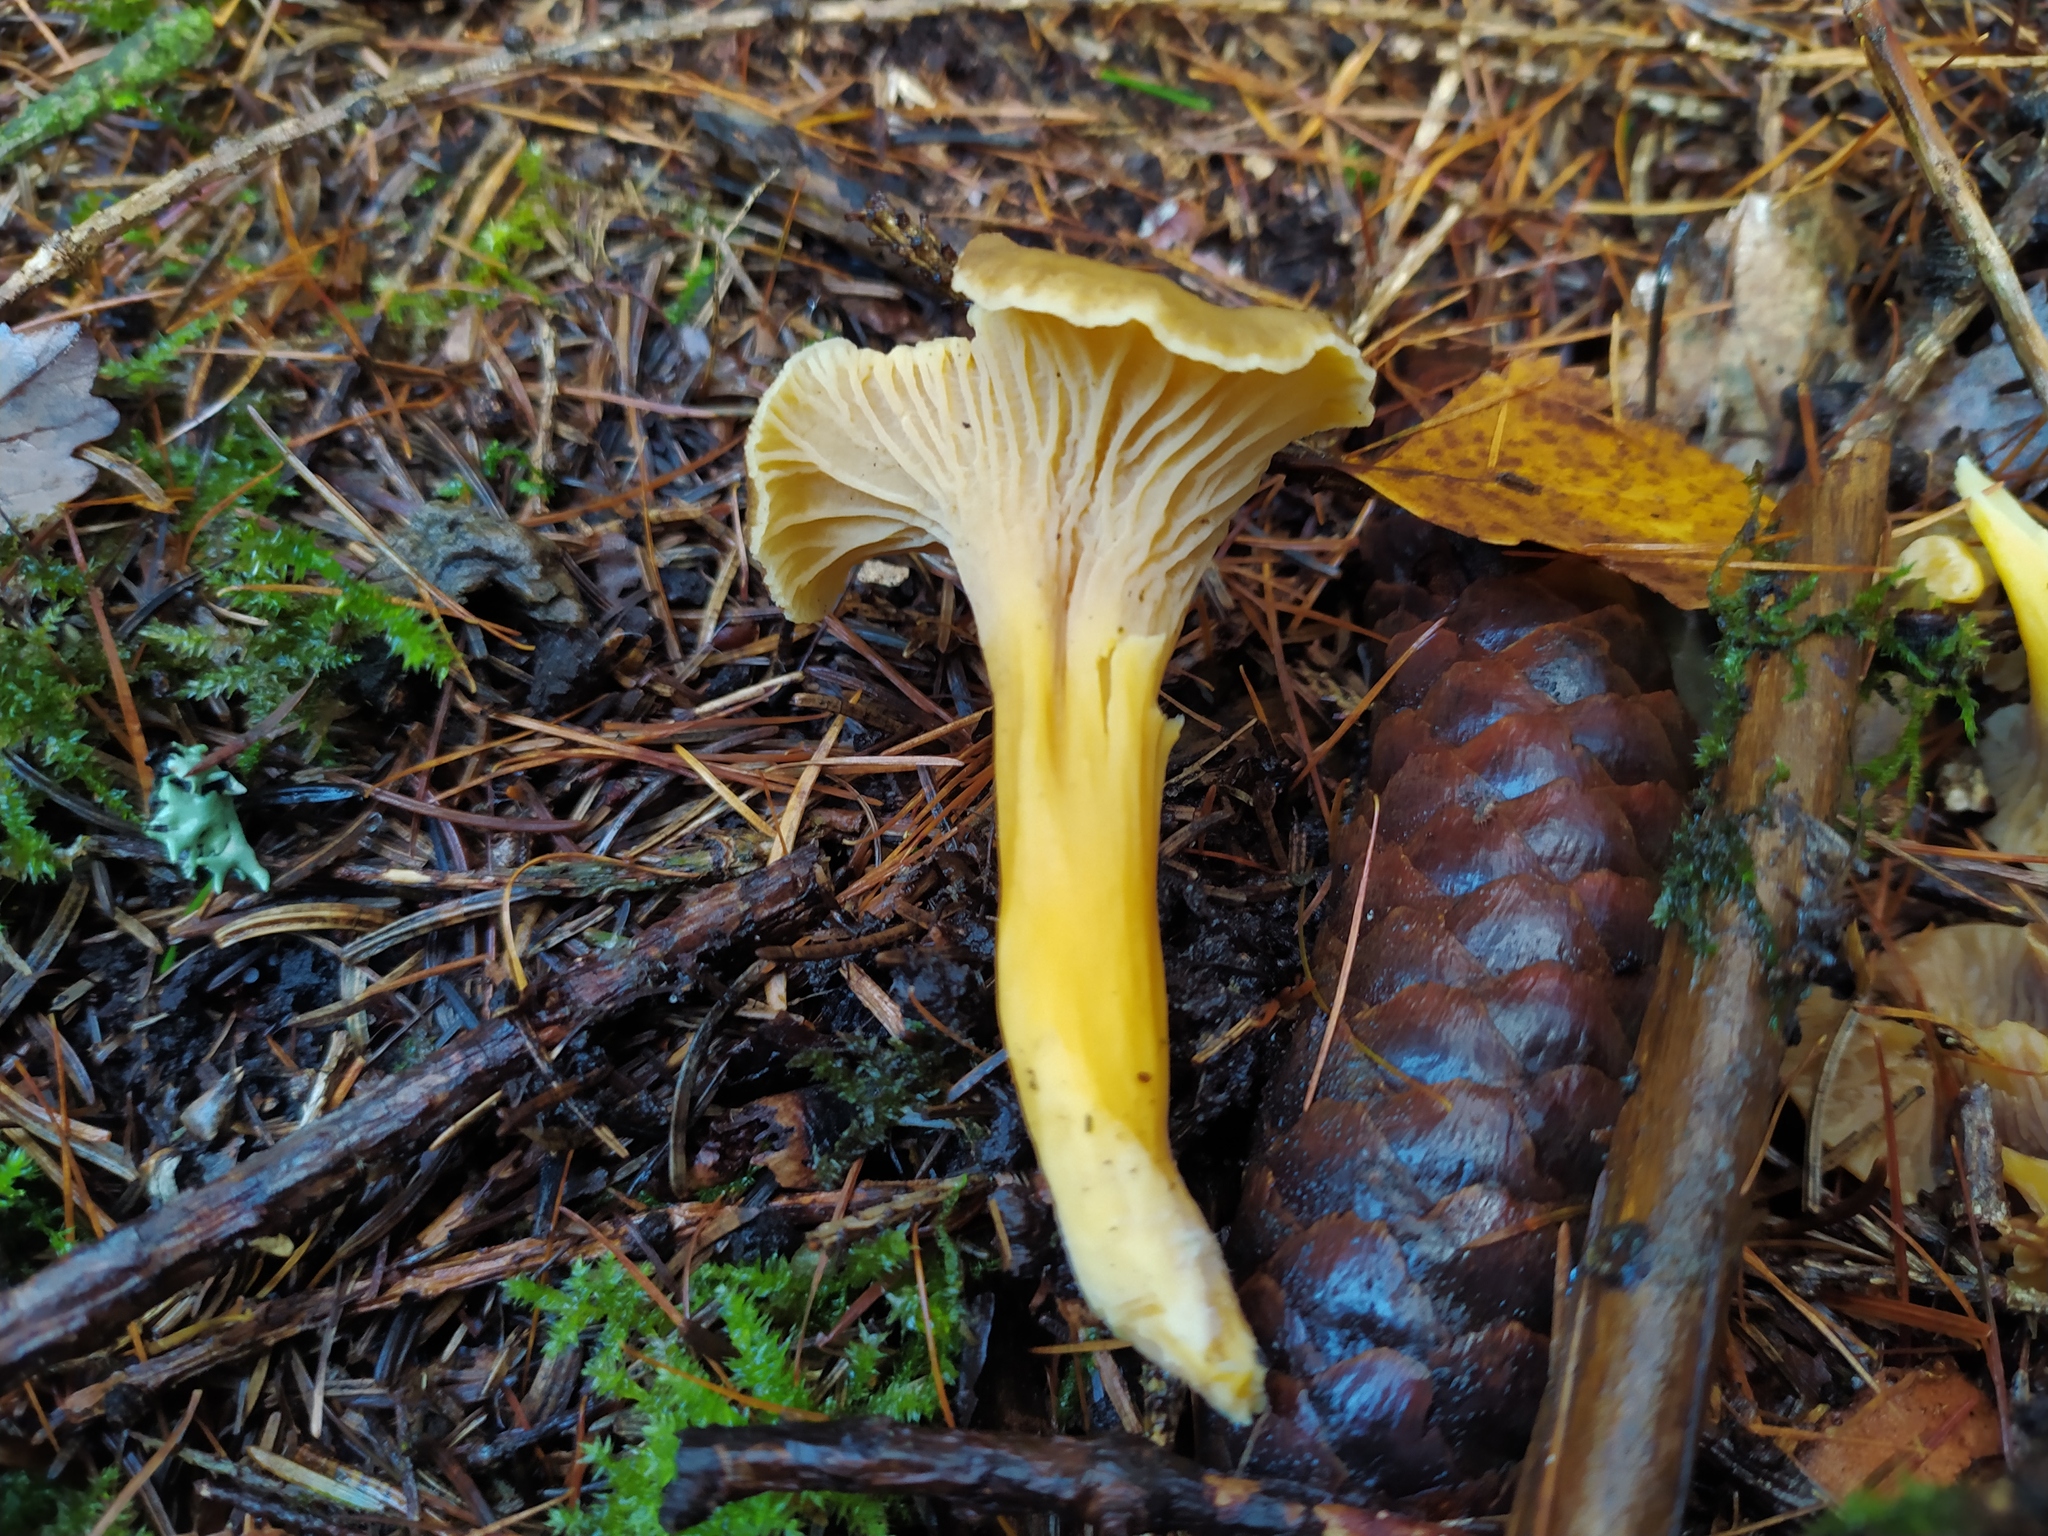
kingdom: Fungi
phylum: Basidiomycota
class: Agaricomycetes
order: Cantharellales
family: Hydnaceae
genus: Craterellus
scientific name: Craterellus tubaeformis
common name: Yellowfoot
